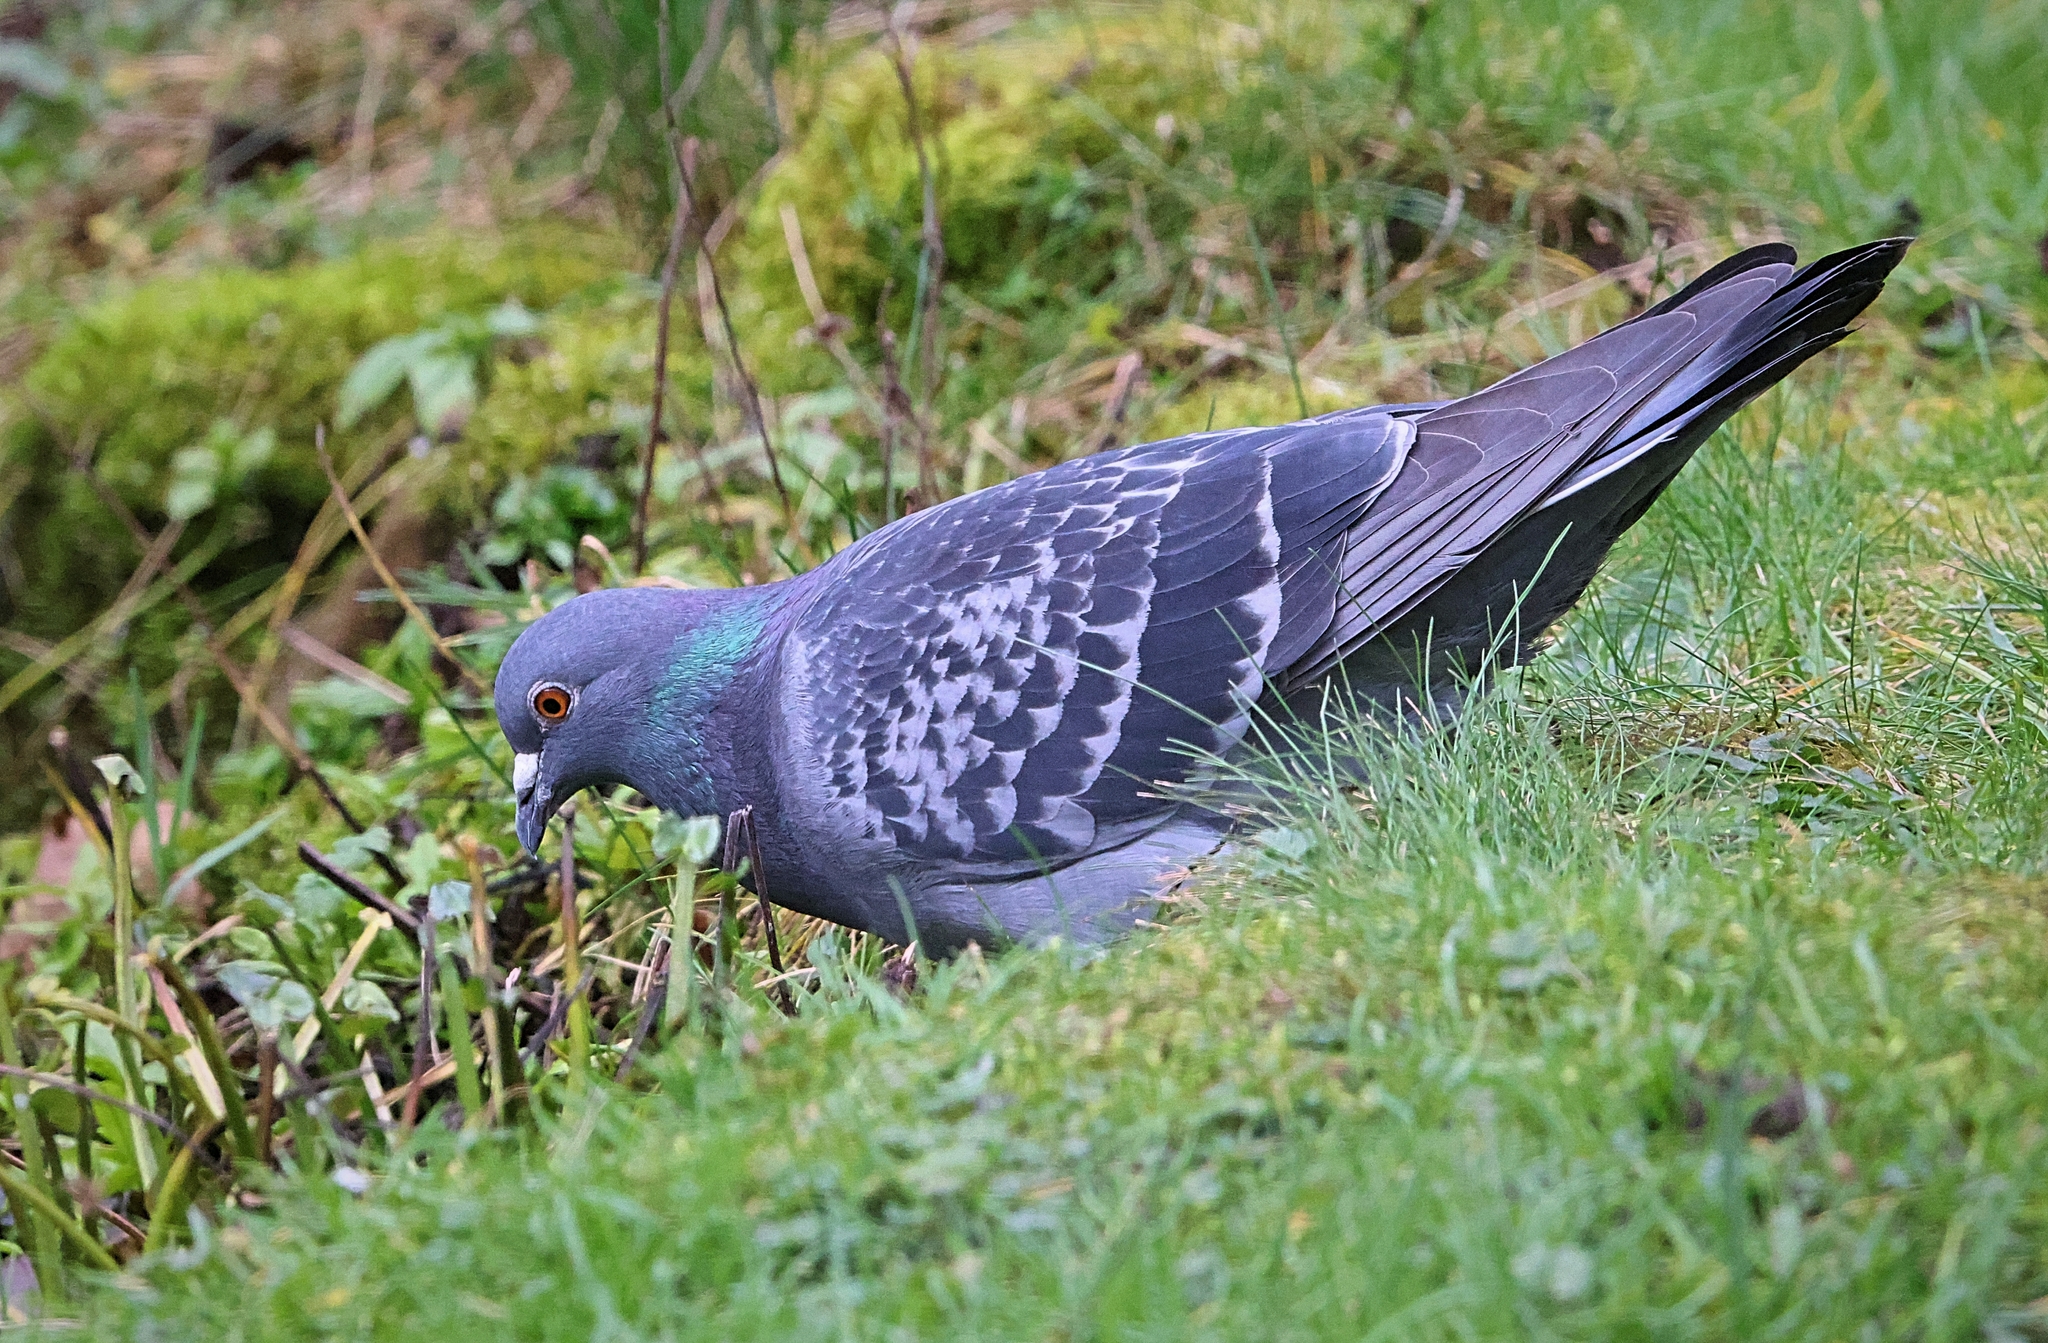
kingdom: Animalia
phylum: Chordata
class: Aves
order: Columbiformes
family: Columbidae
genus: Columba
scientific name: Columba livia
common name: Rock pigeon
